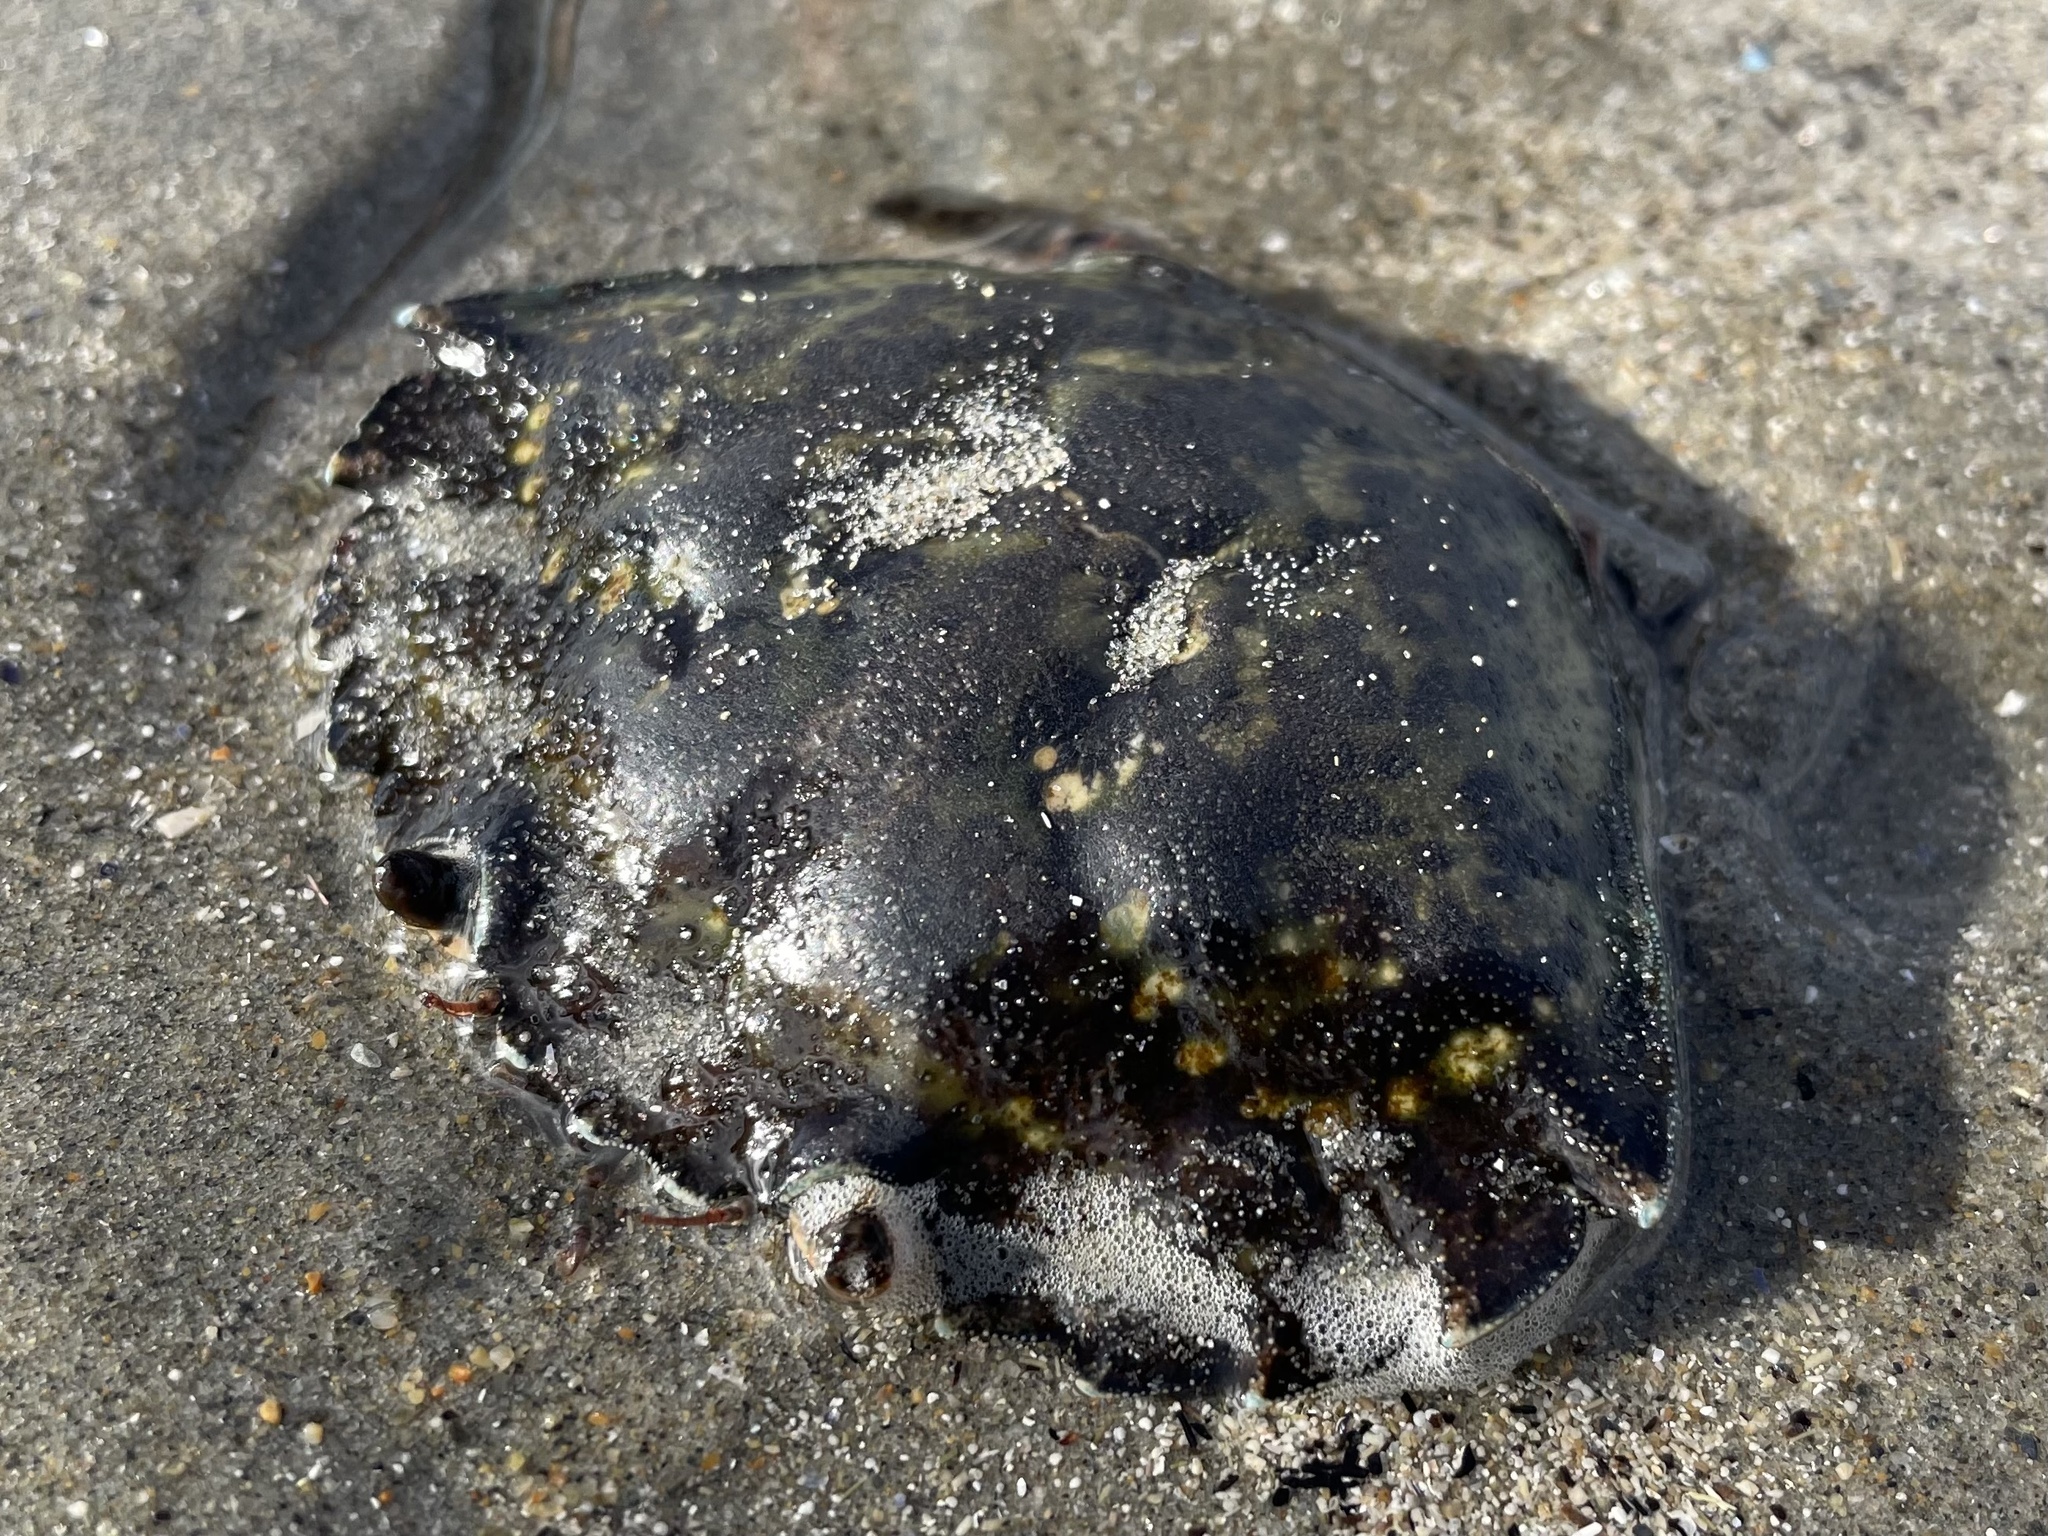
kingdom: Animalia
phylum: Arthropoda
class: Malacostraca
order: Decapoda
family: Carcinidae
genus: Carcinus
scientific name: Carcinus maenas
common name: European green crab
